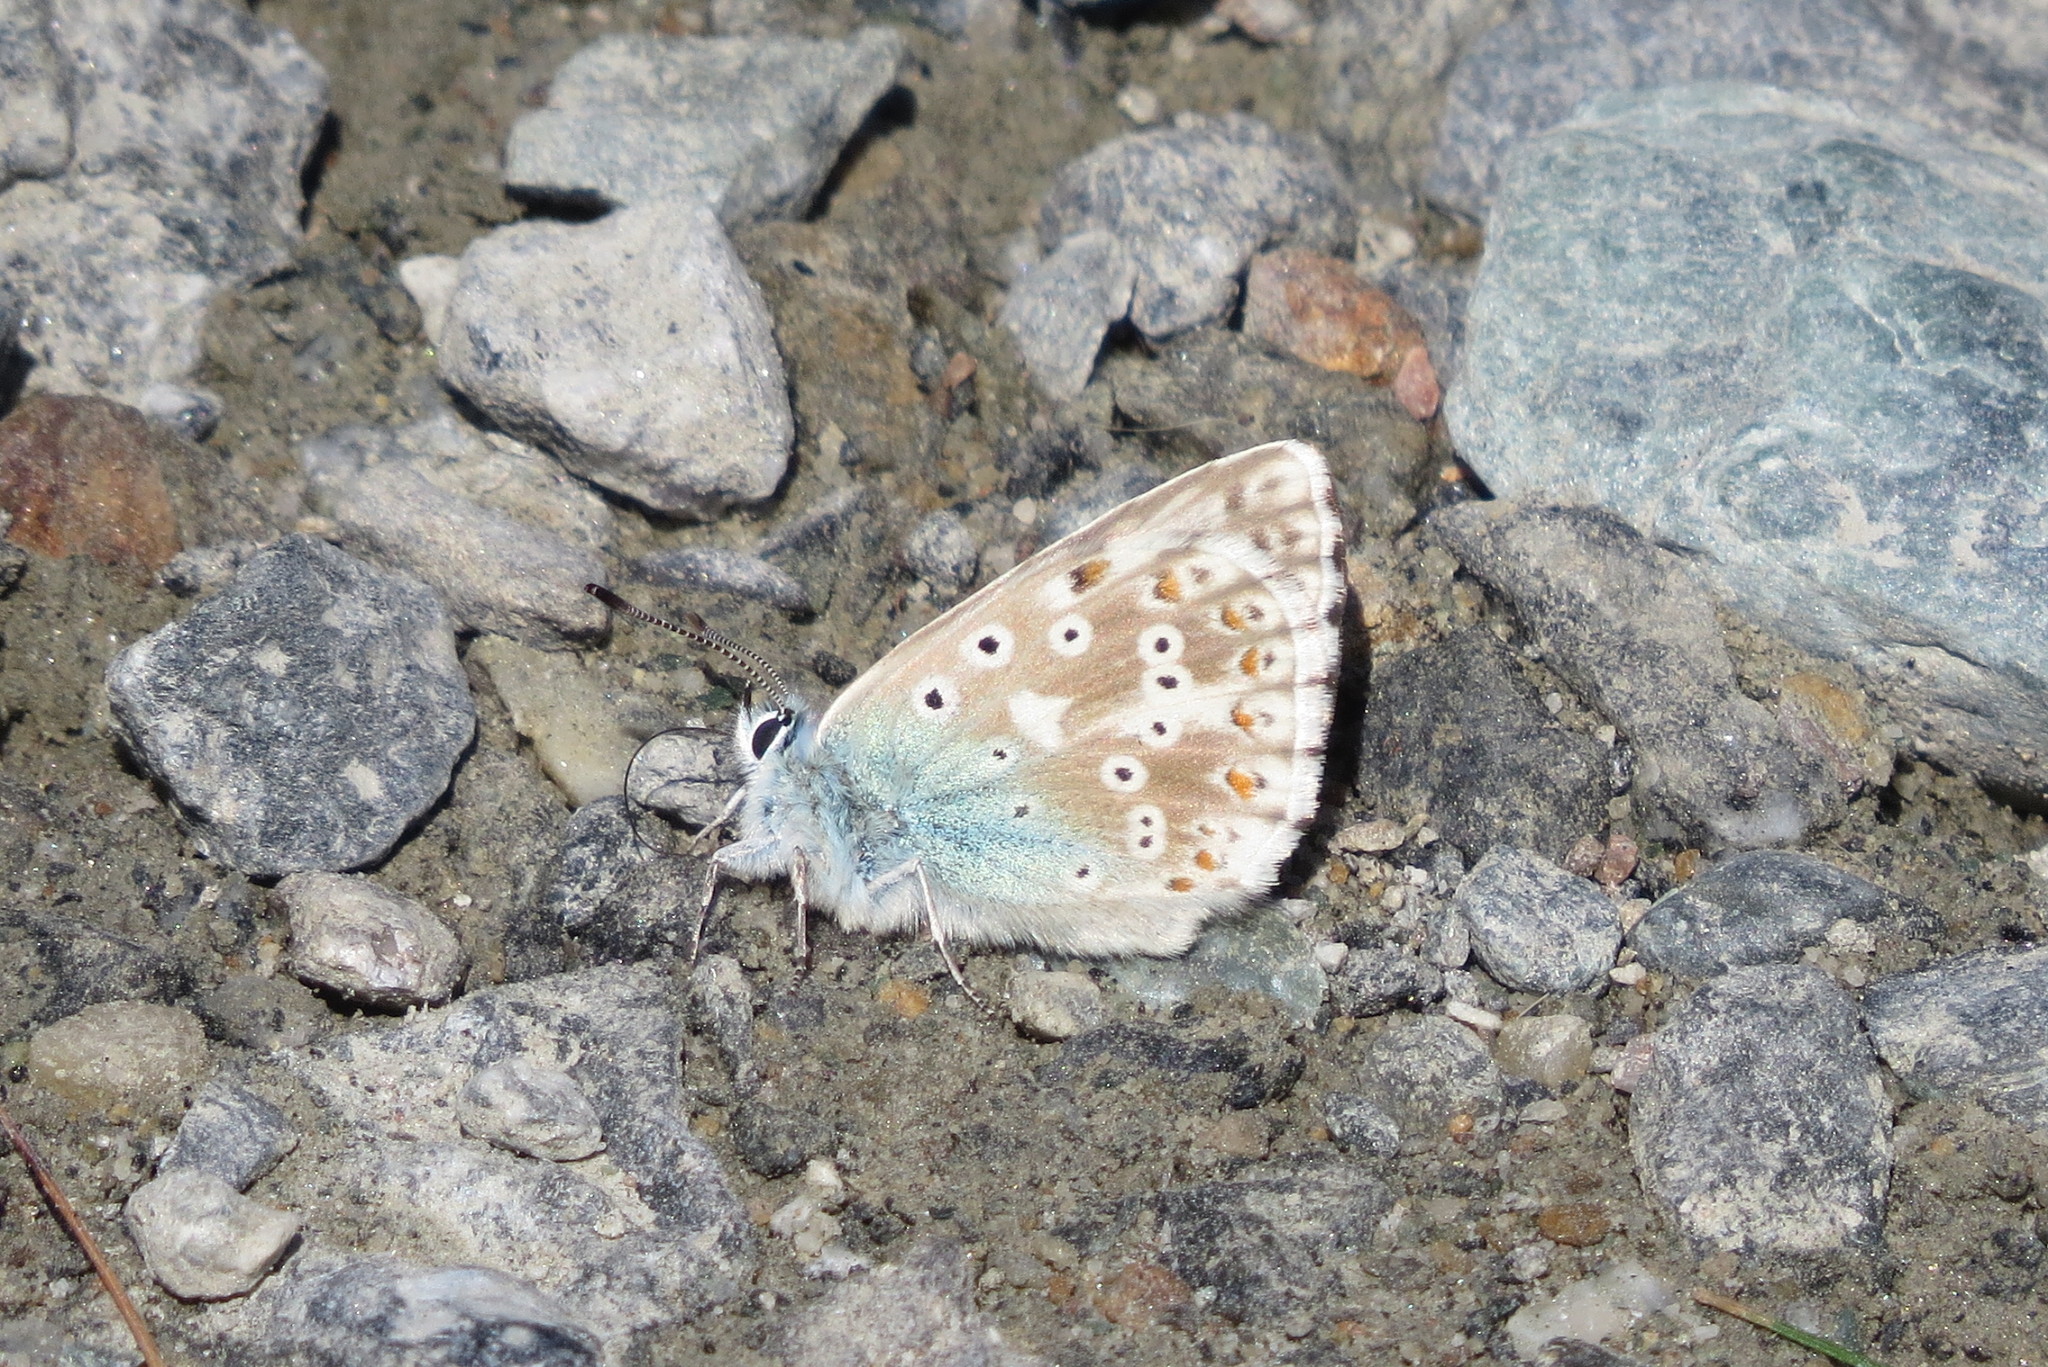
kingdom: Animalia
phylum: Arthropoda
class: Insecta
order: Lepidoptera
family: Lycaenidae
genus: Lysandra
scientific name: Lysandra coridon
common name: Chalkhill blue
